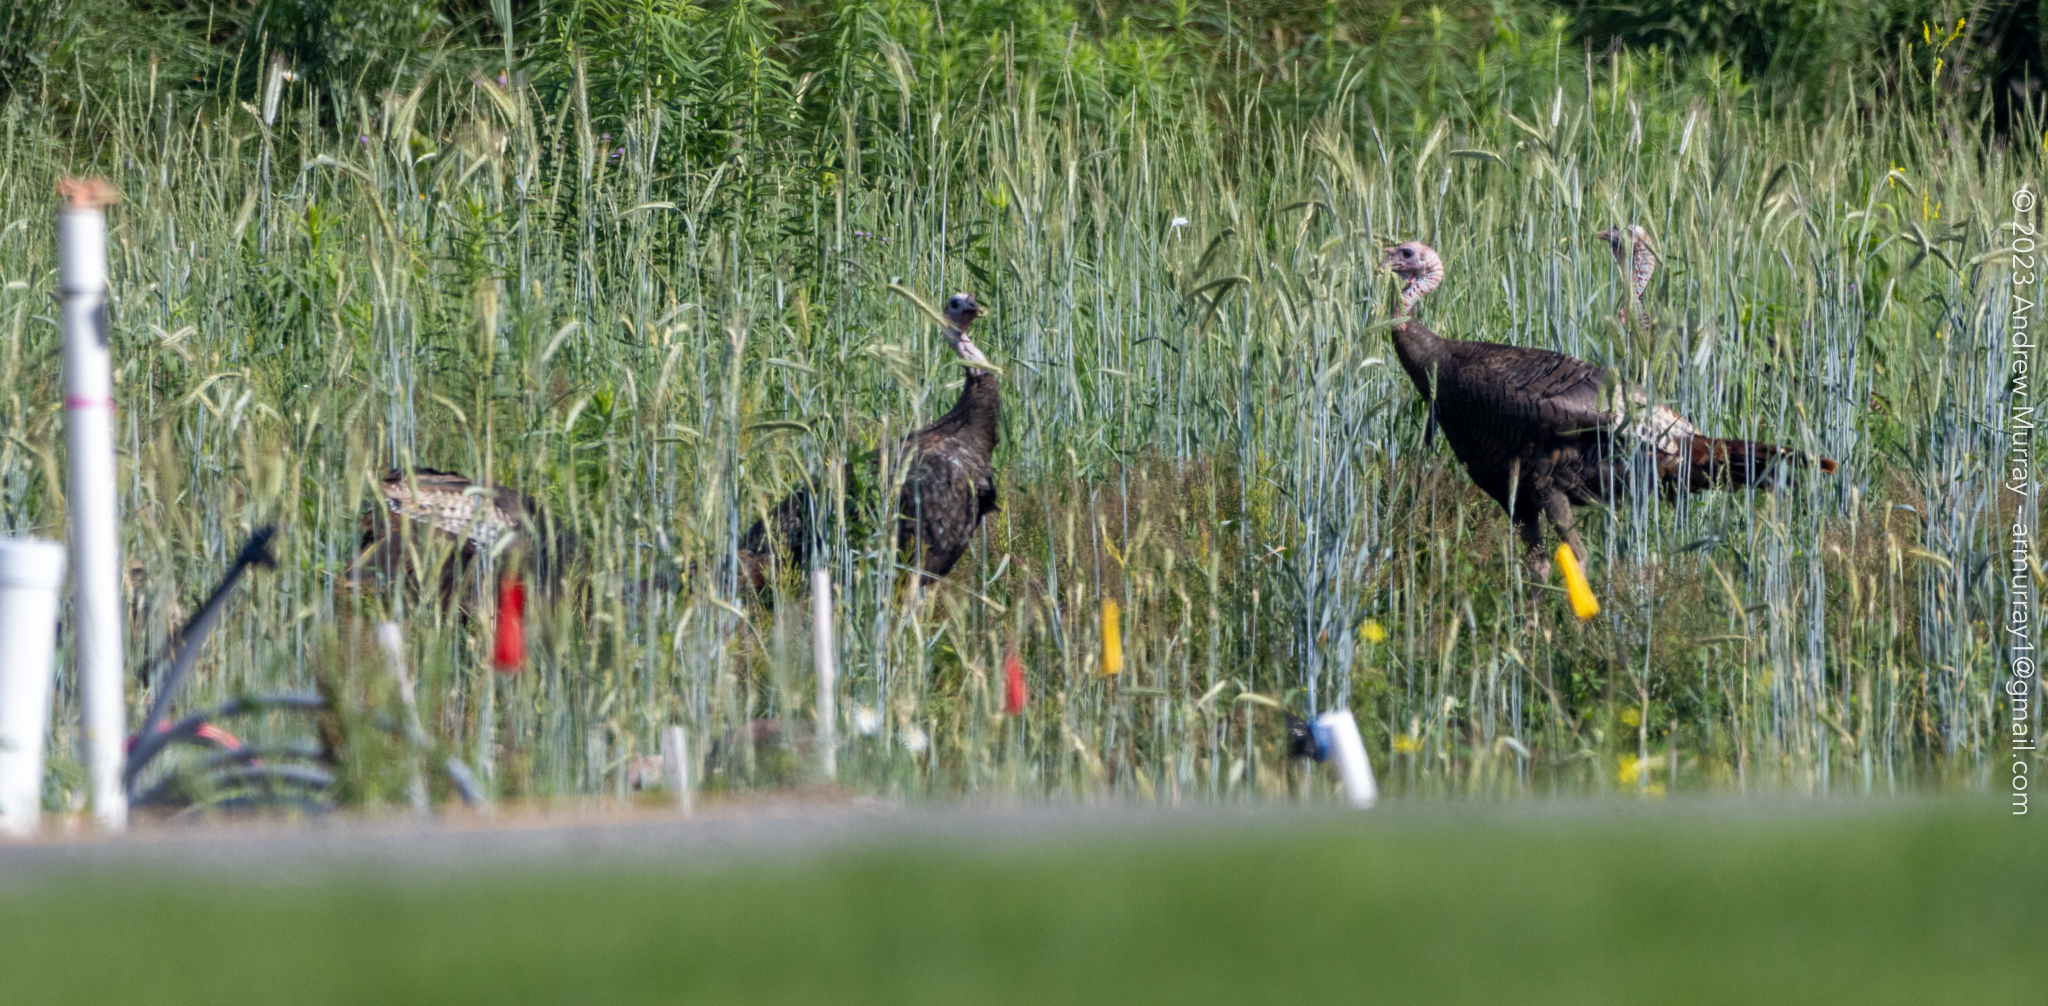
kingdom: Animalia
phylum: Chordata
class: Aves
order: Galliformes
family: Phasianidae
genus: Meleagris
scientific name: Meleagris gallopavo
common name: Wild turkey
